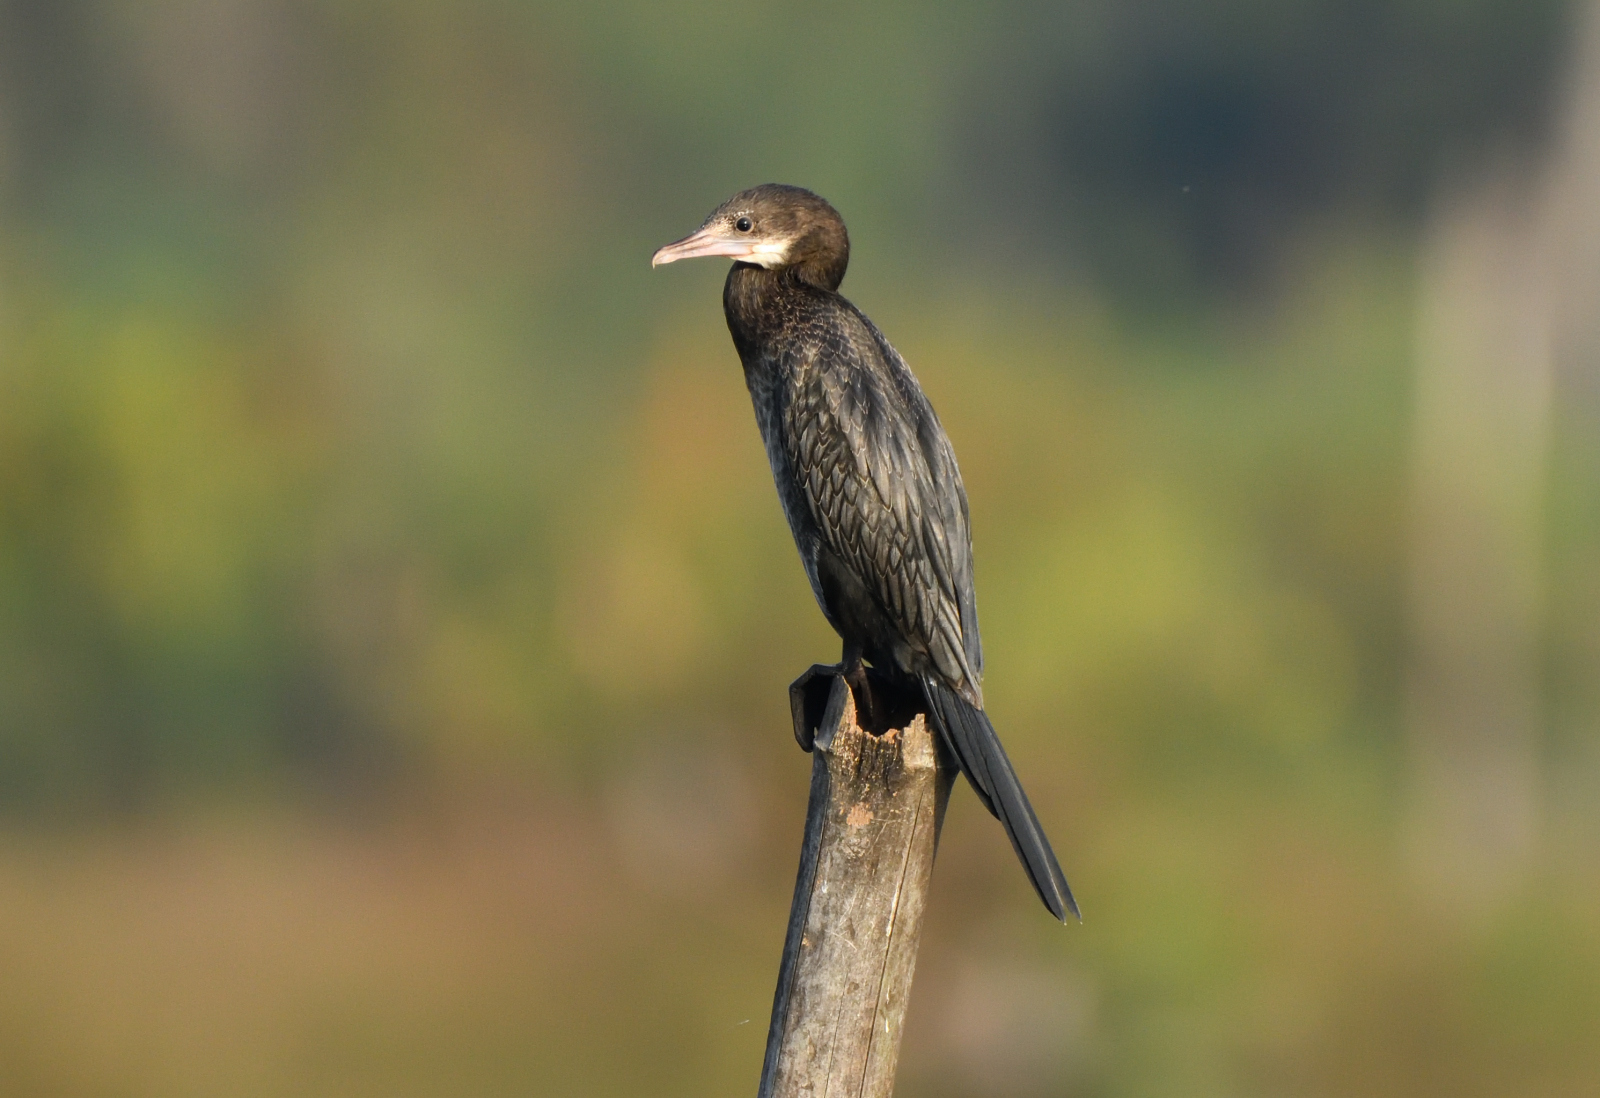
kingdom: Animalia
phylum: Chordata
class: Aves
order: Suliformes
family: Phalacrocoracidae
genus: Microcarbo
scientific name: Microcarbo niger
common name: Little cormorant
